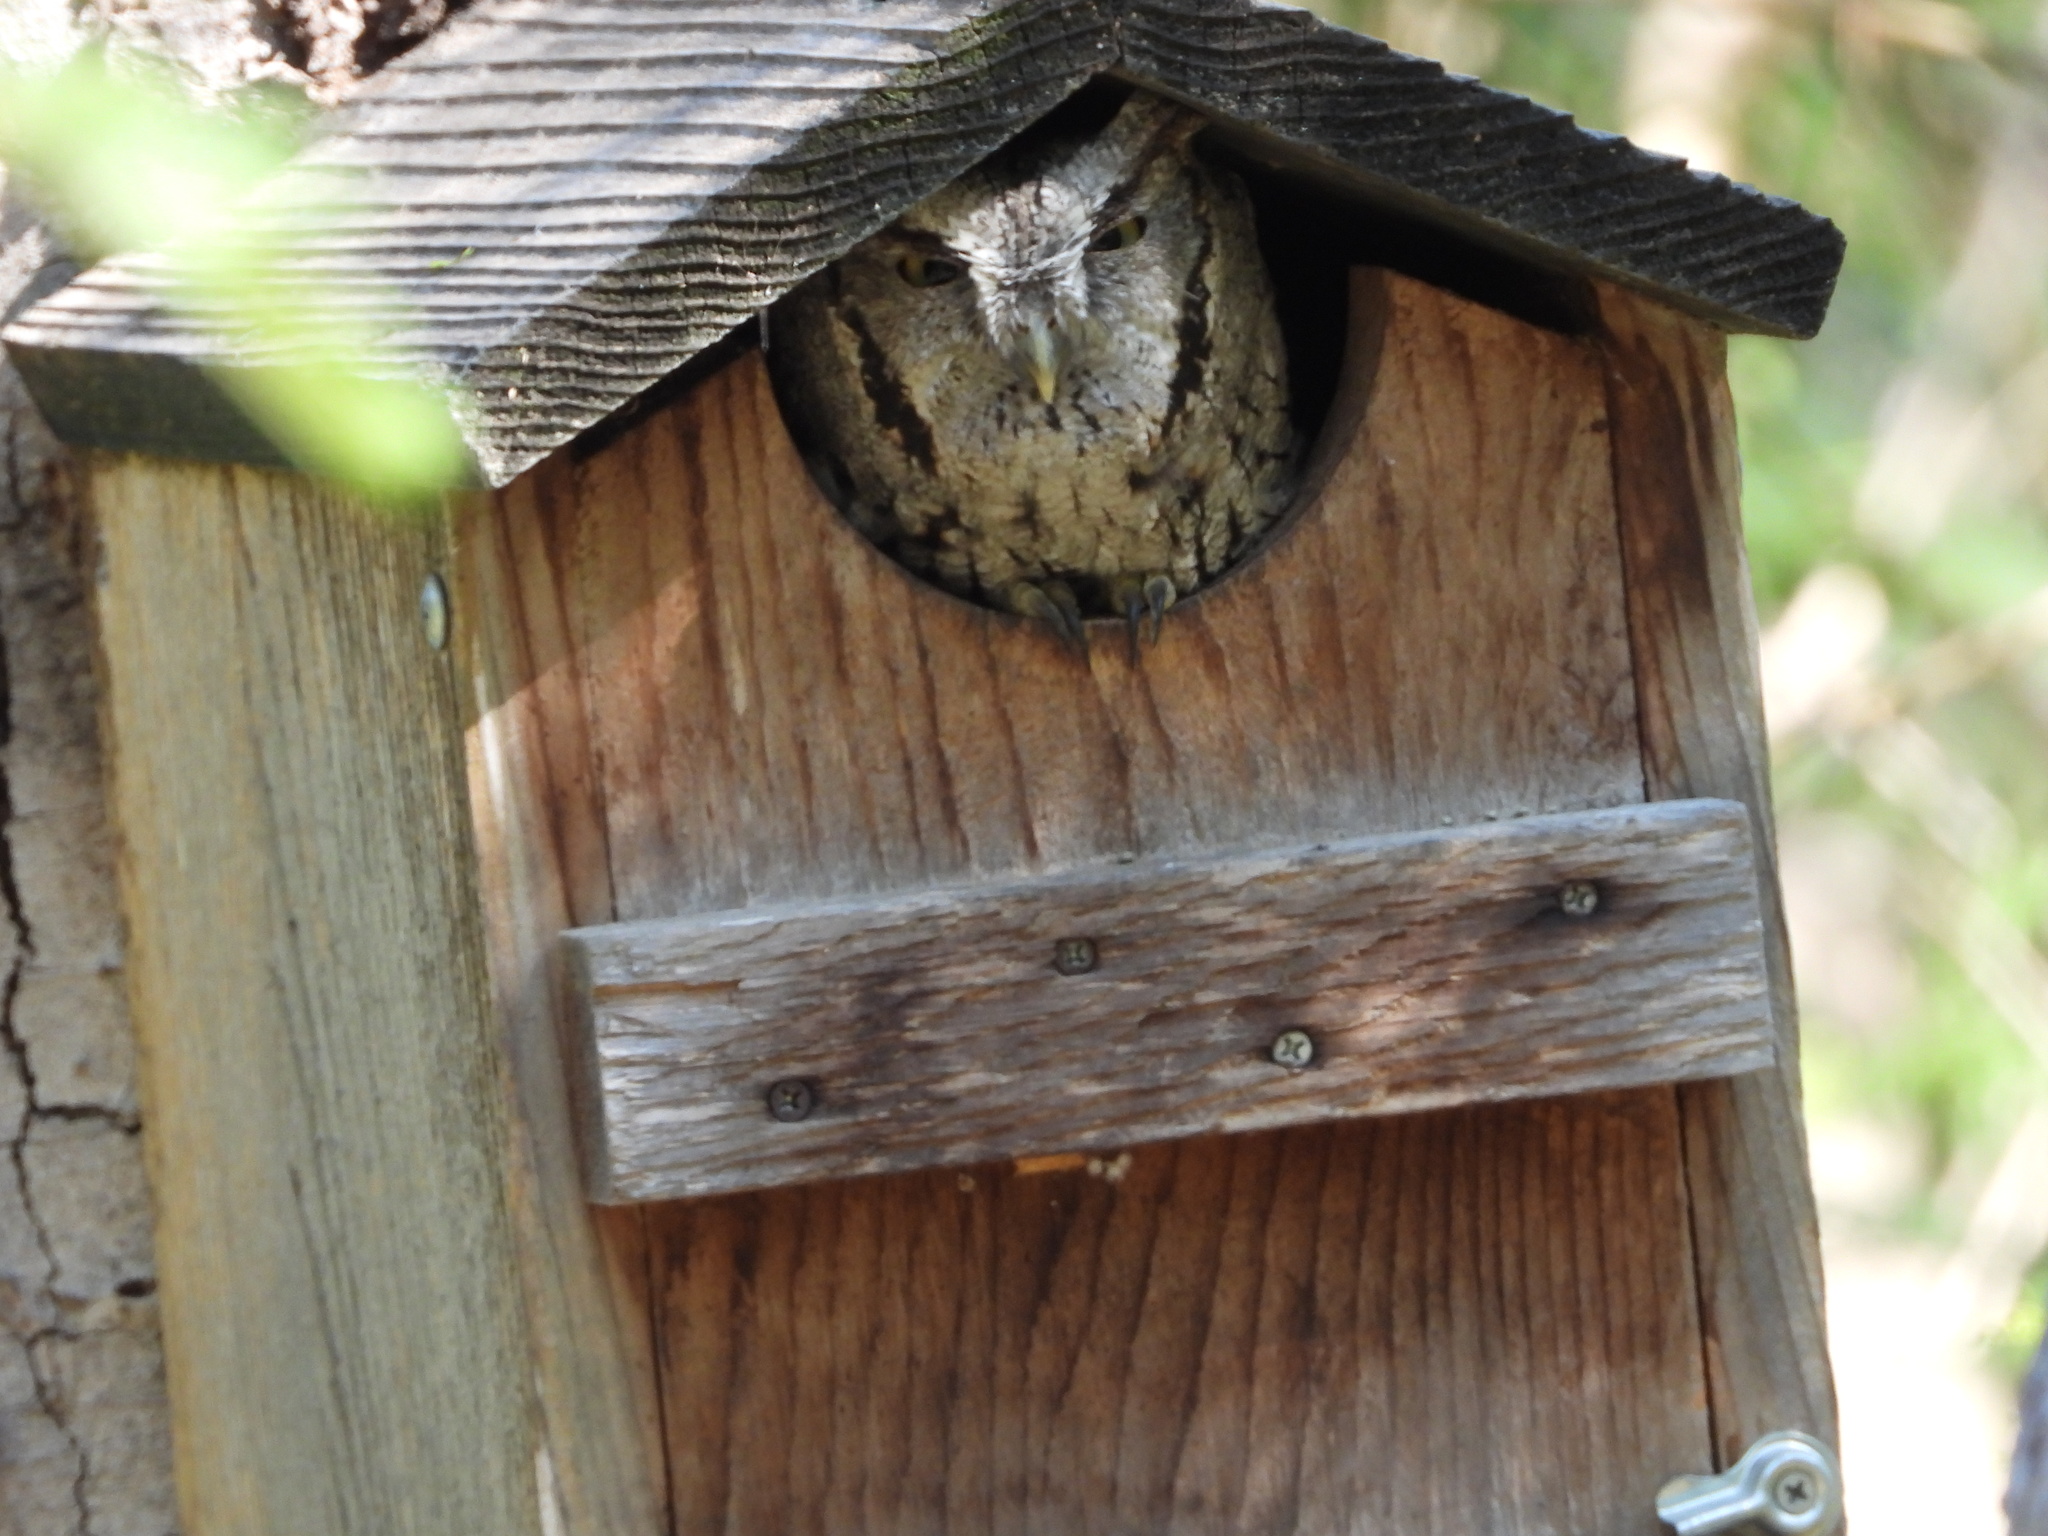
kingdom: Animalia
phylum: Chordata
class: Aves
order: Strigiformes
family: Strigidae
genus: Megascops
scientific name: Megascops asio
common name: Eastern screech-owl
